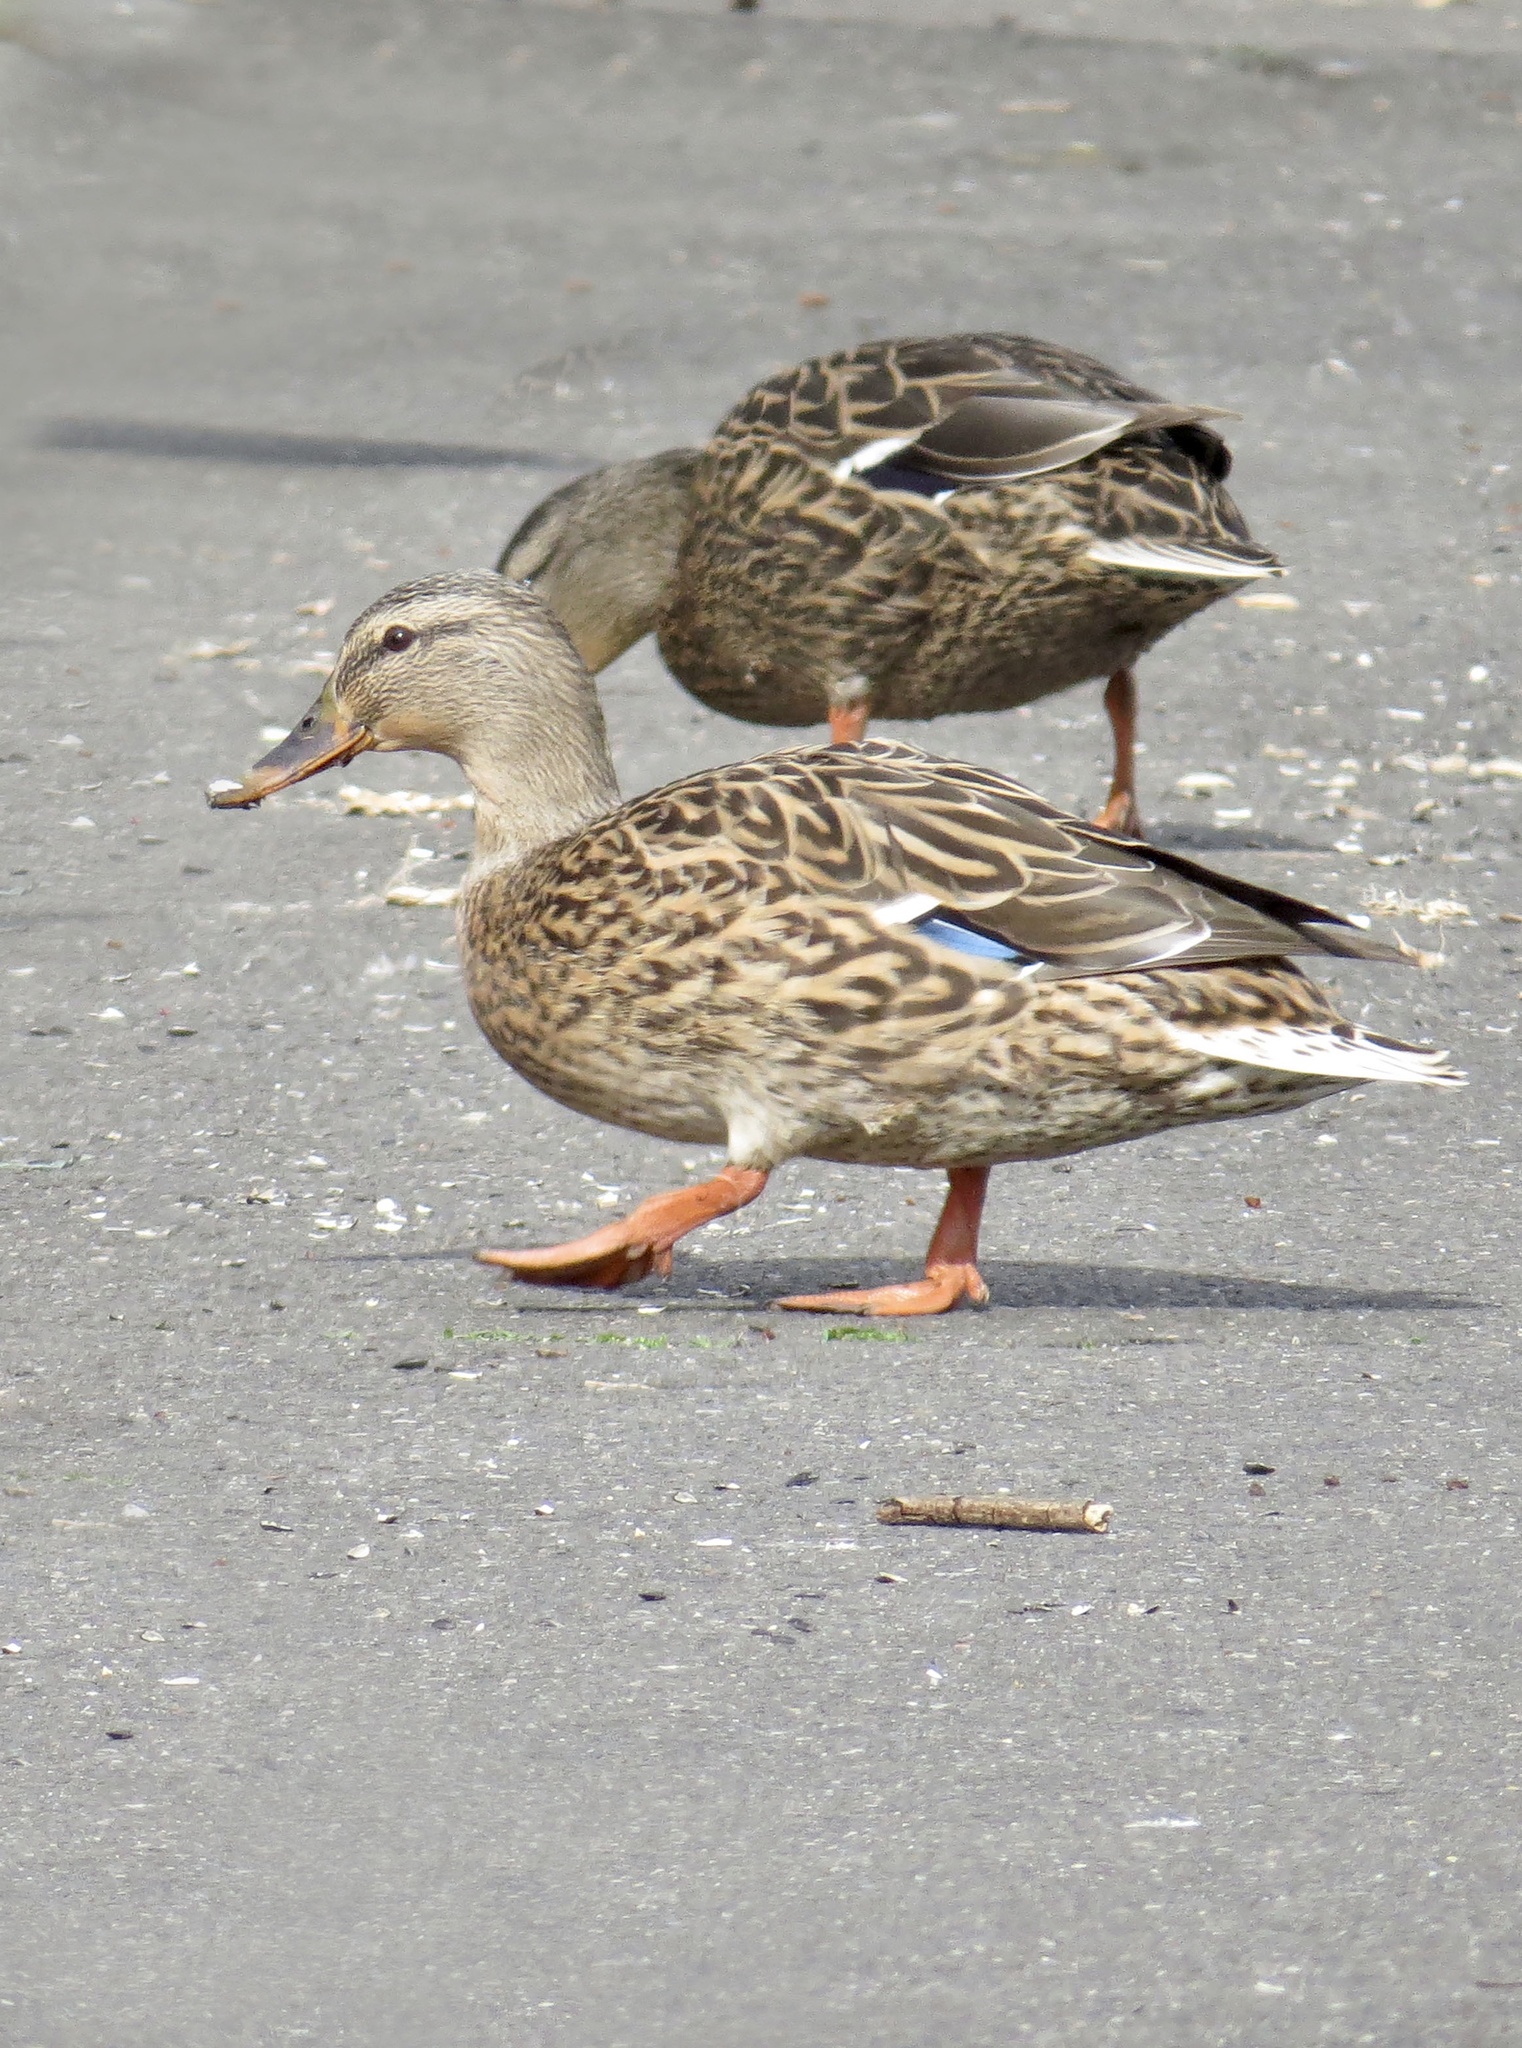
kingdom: Animalia
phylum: Chordata
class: Aves
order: Anseriformes
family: Anatidae
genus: Anas
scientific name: Anas platyrhynchos
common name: Mallard
